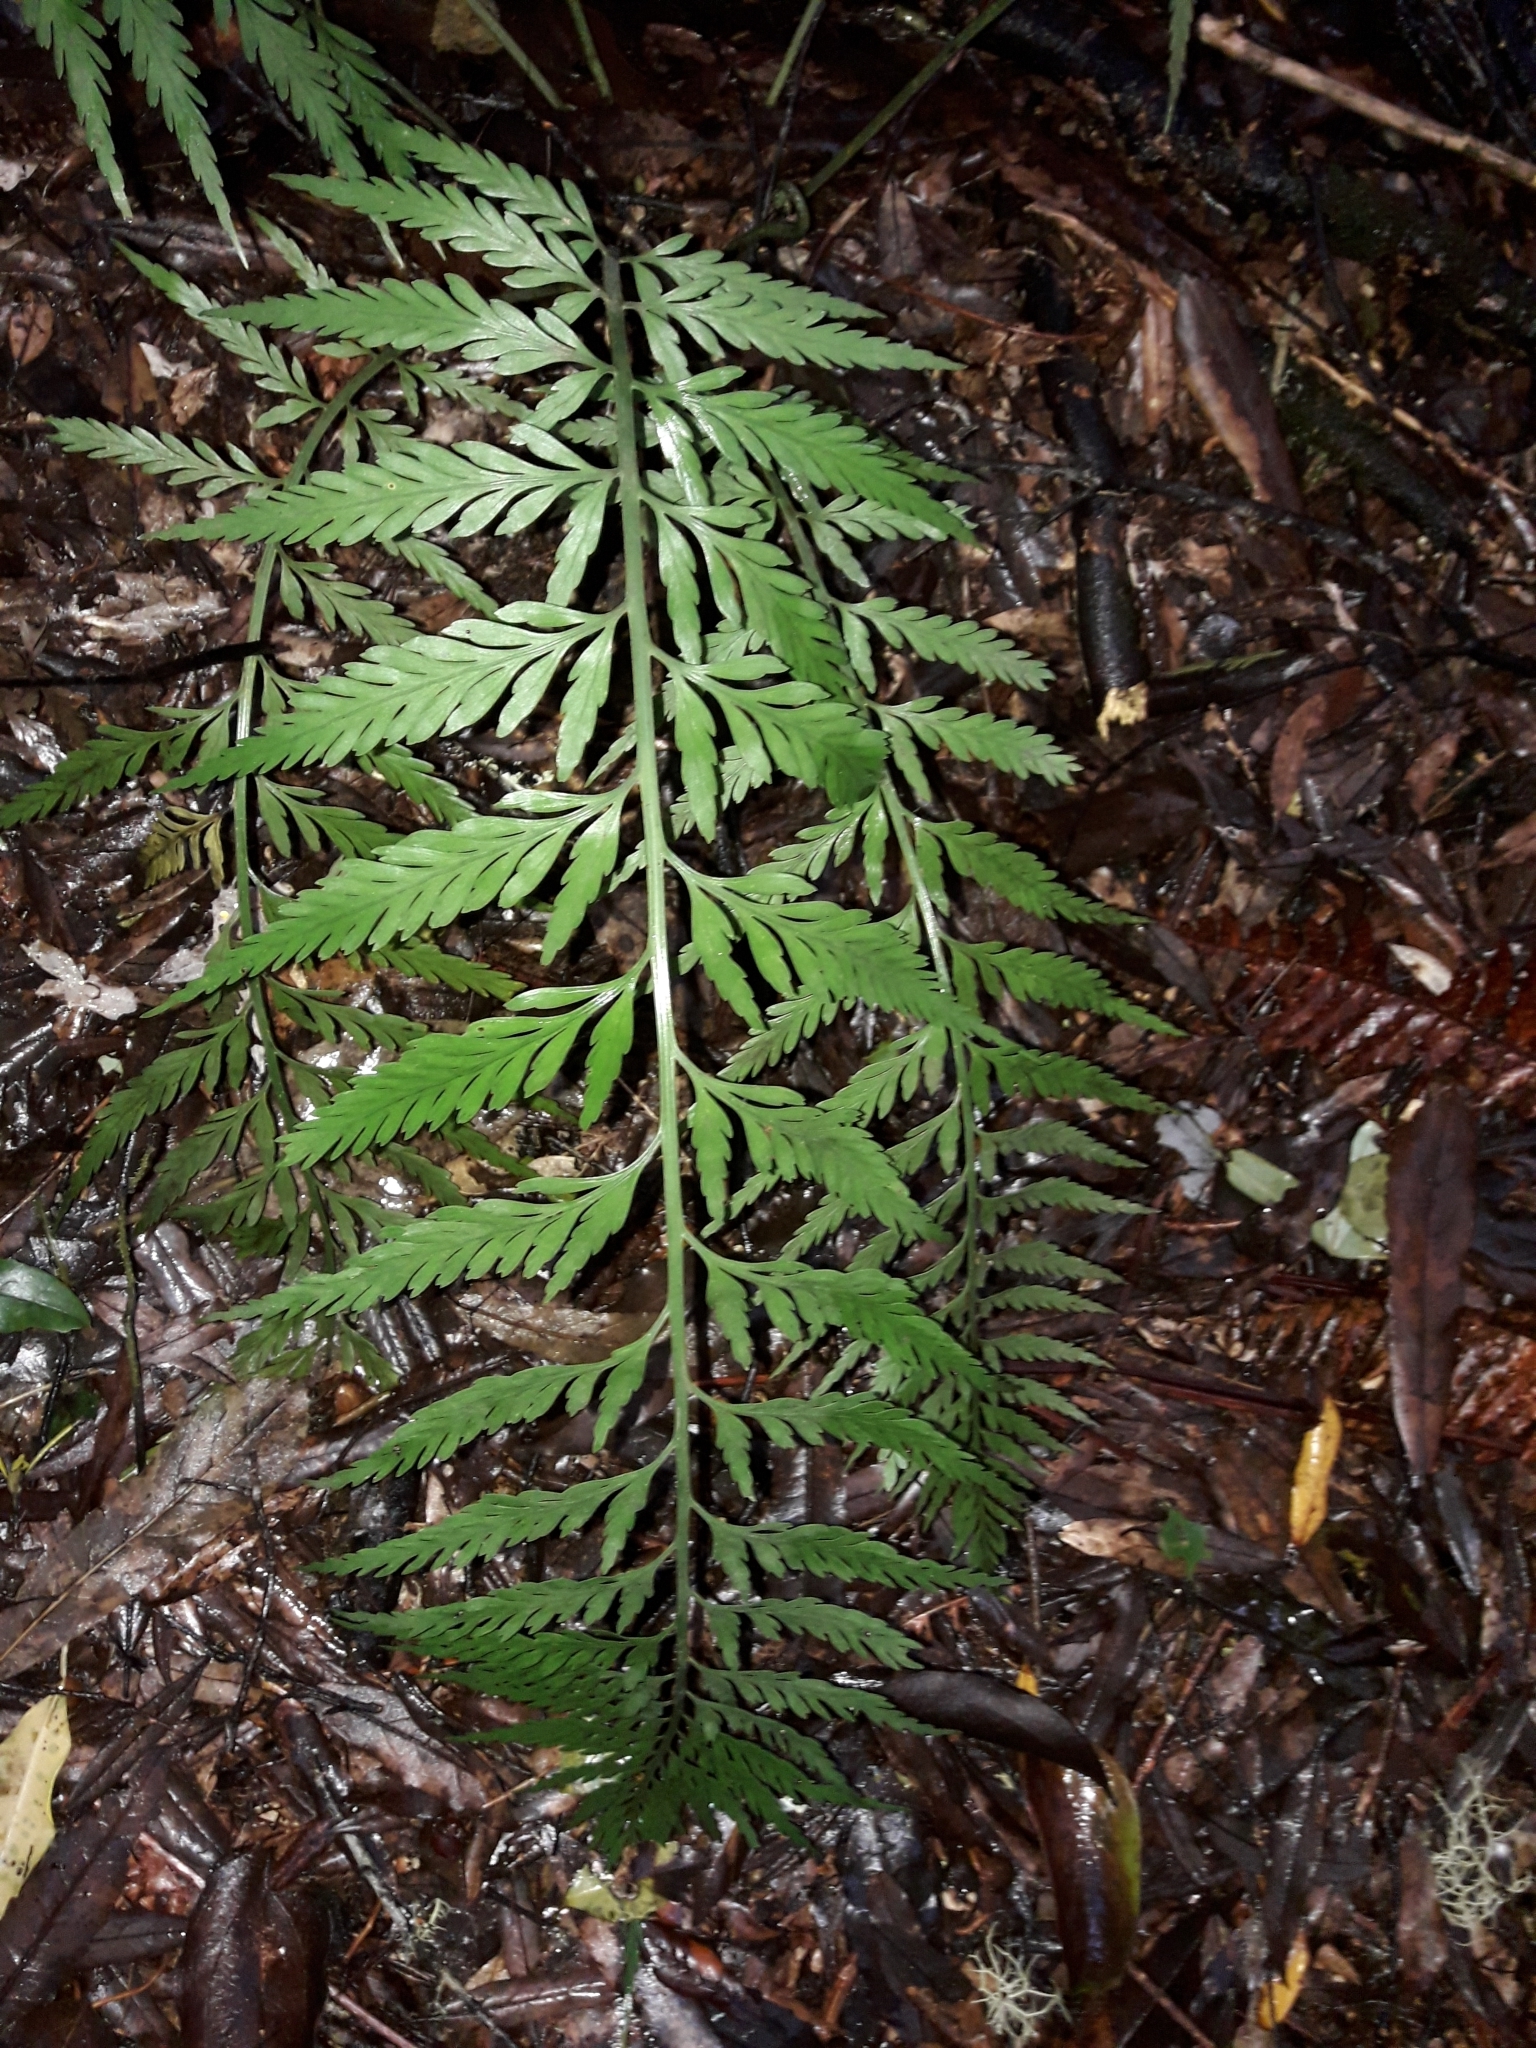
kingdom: Plantae
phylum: Tracheophyta
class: Polypodiopsida
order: Polypodiales
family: Aspleniaceae
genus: Asplenium
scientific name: Asplenium flaccidum
